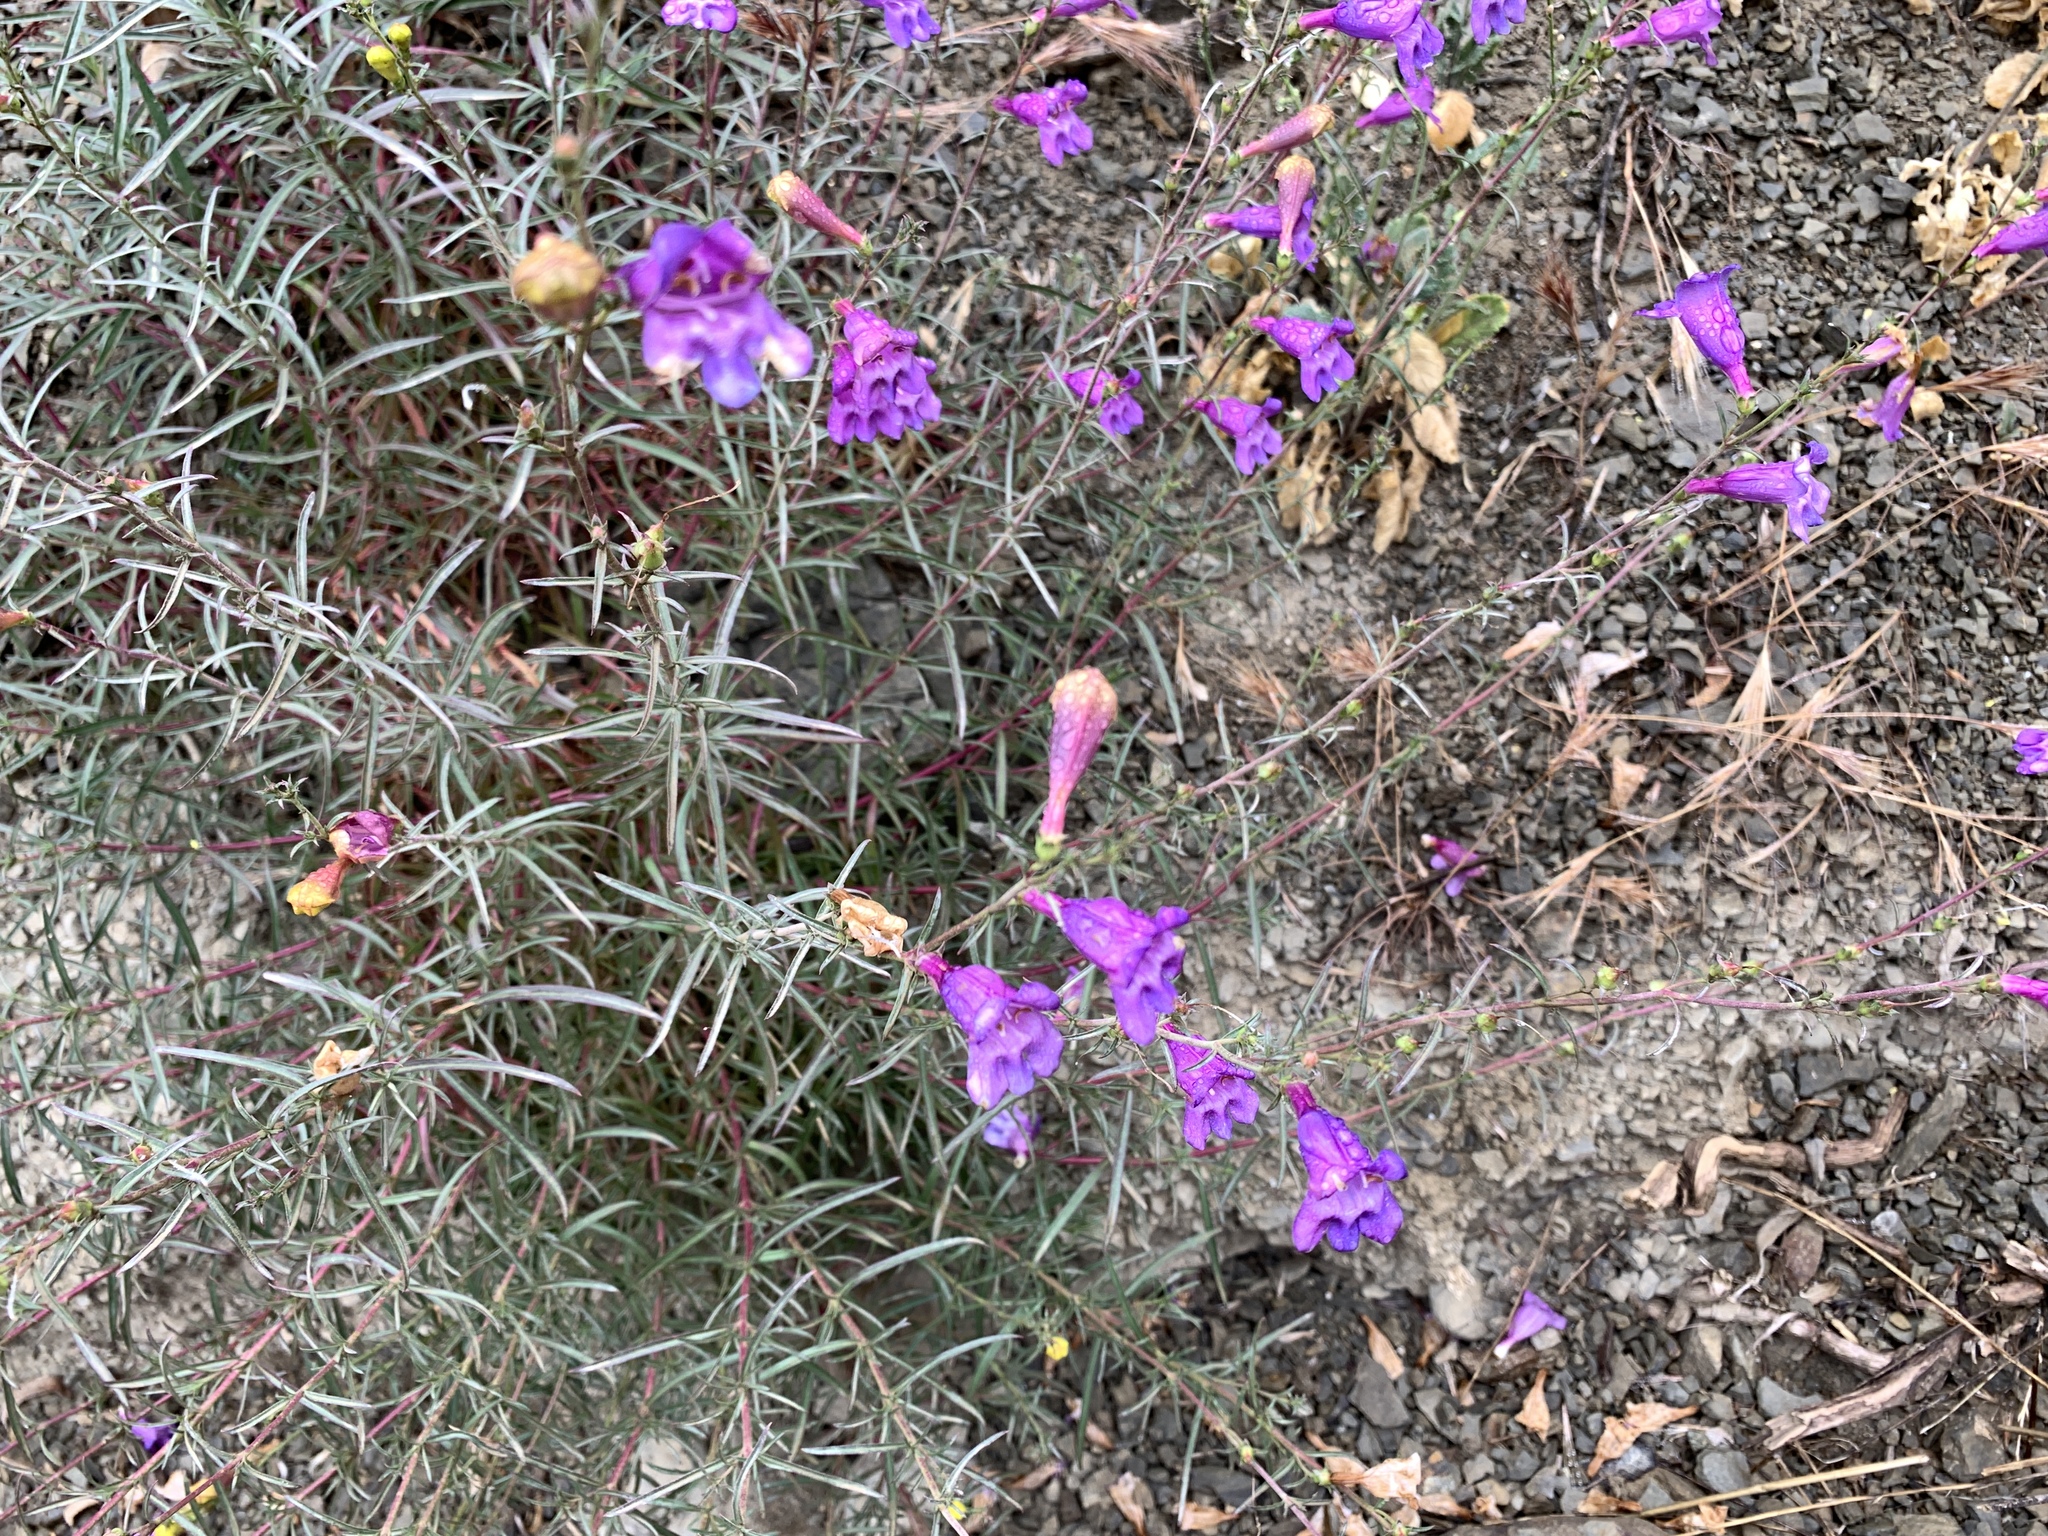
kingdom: Plantae
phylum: Tracheophyta
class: Magnoliopsida
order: Lamiales
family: Plantaginaceae
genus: Penstemon
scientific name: Penstemon heterophyllus
